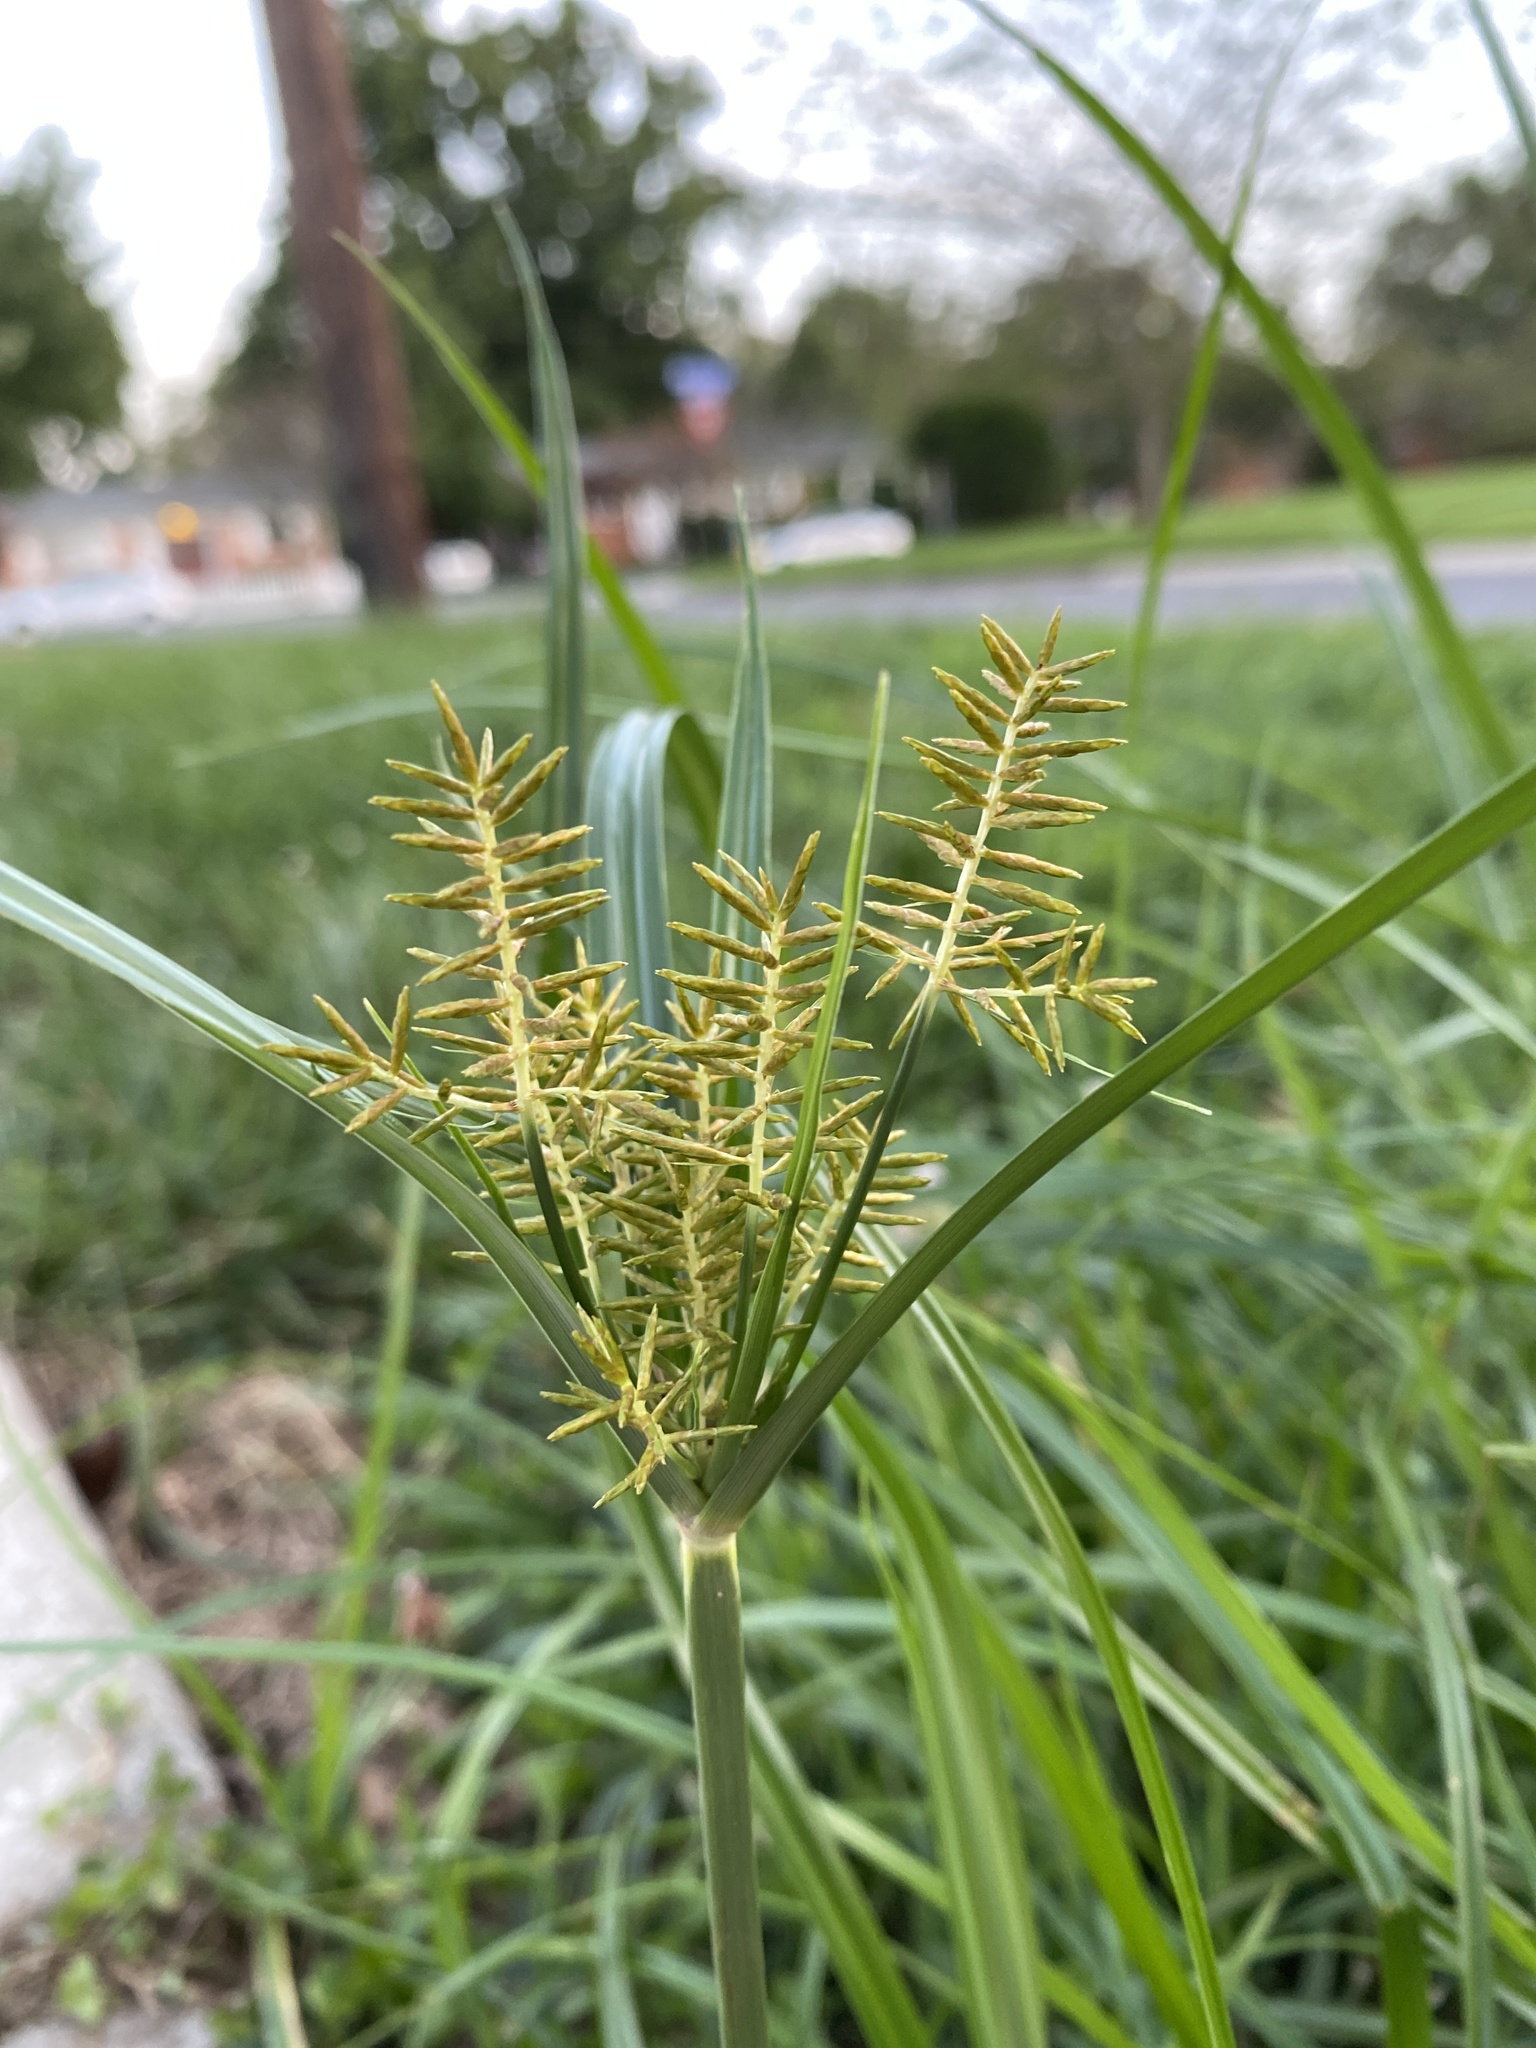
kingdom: Plantae
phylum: Tracheophyta
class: Liliopsida
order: Poales
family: Cyperaceae
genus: Cyperus
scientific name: Cyperus esculentus
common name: Yellow nutsedge
